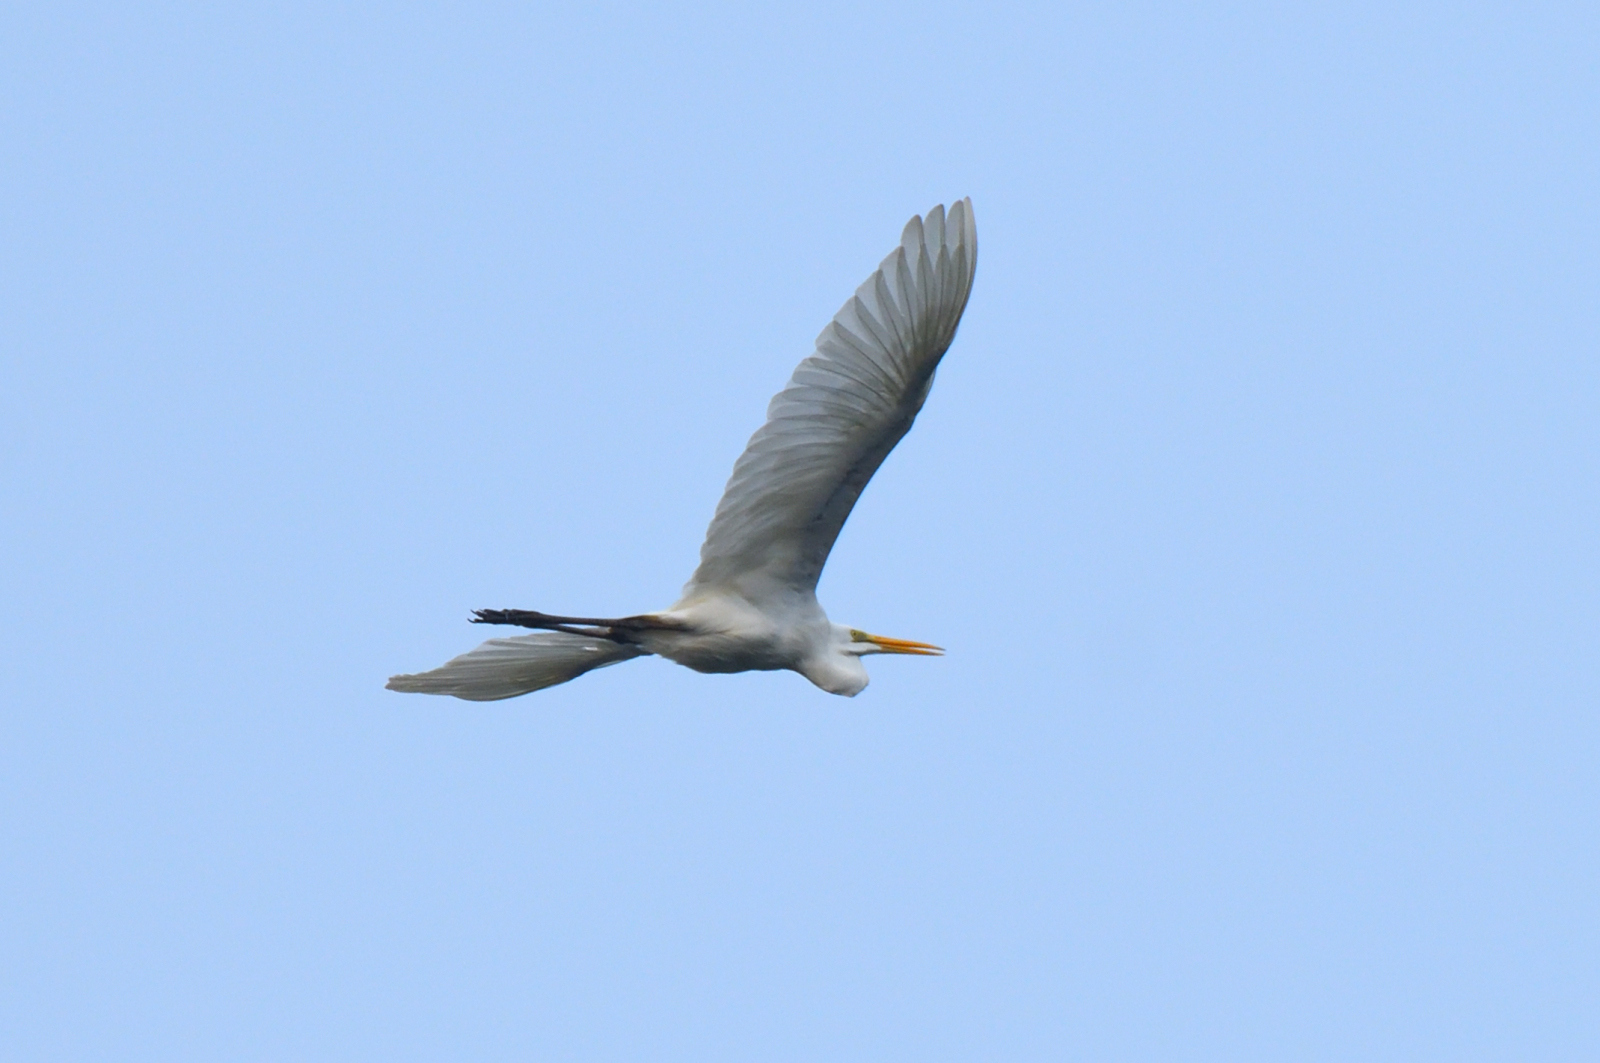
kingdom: Animalia
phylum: Chordata
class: Aves
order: Pelecaniformes
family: Ardeidae
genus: Ardea
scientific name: Ardea alba
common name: Great egret
